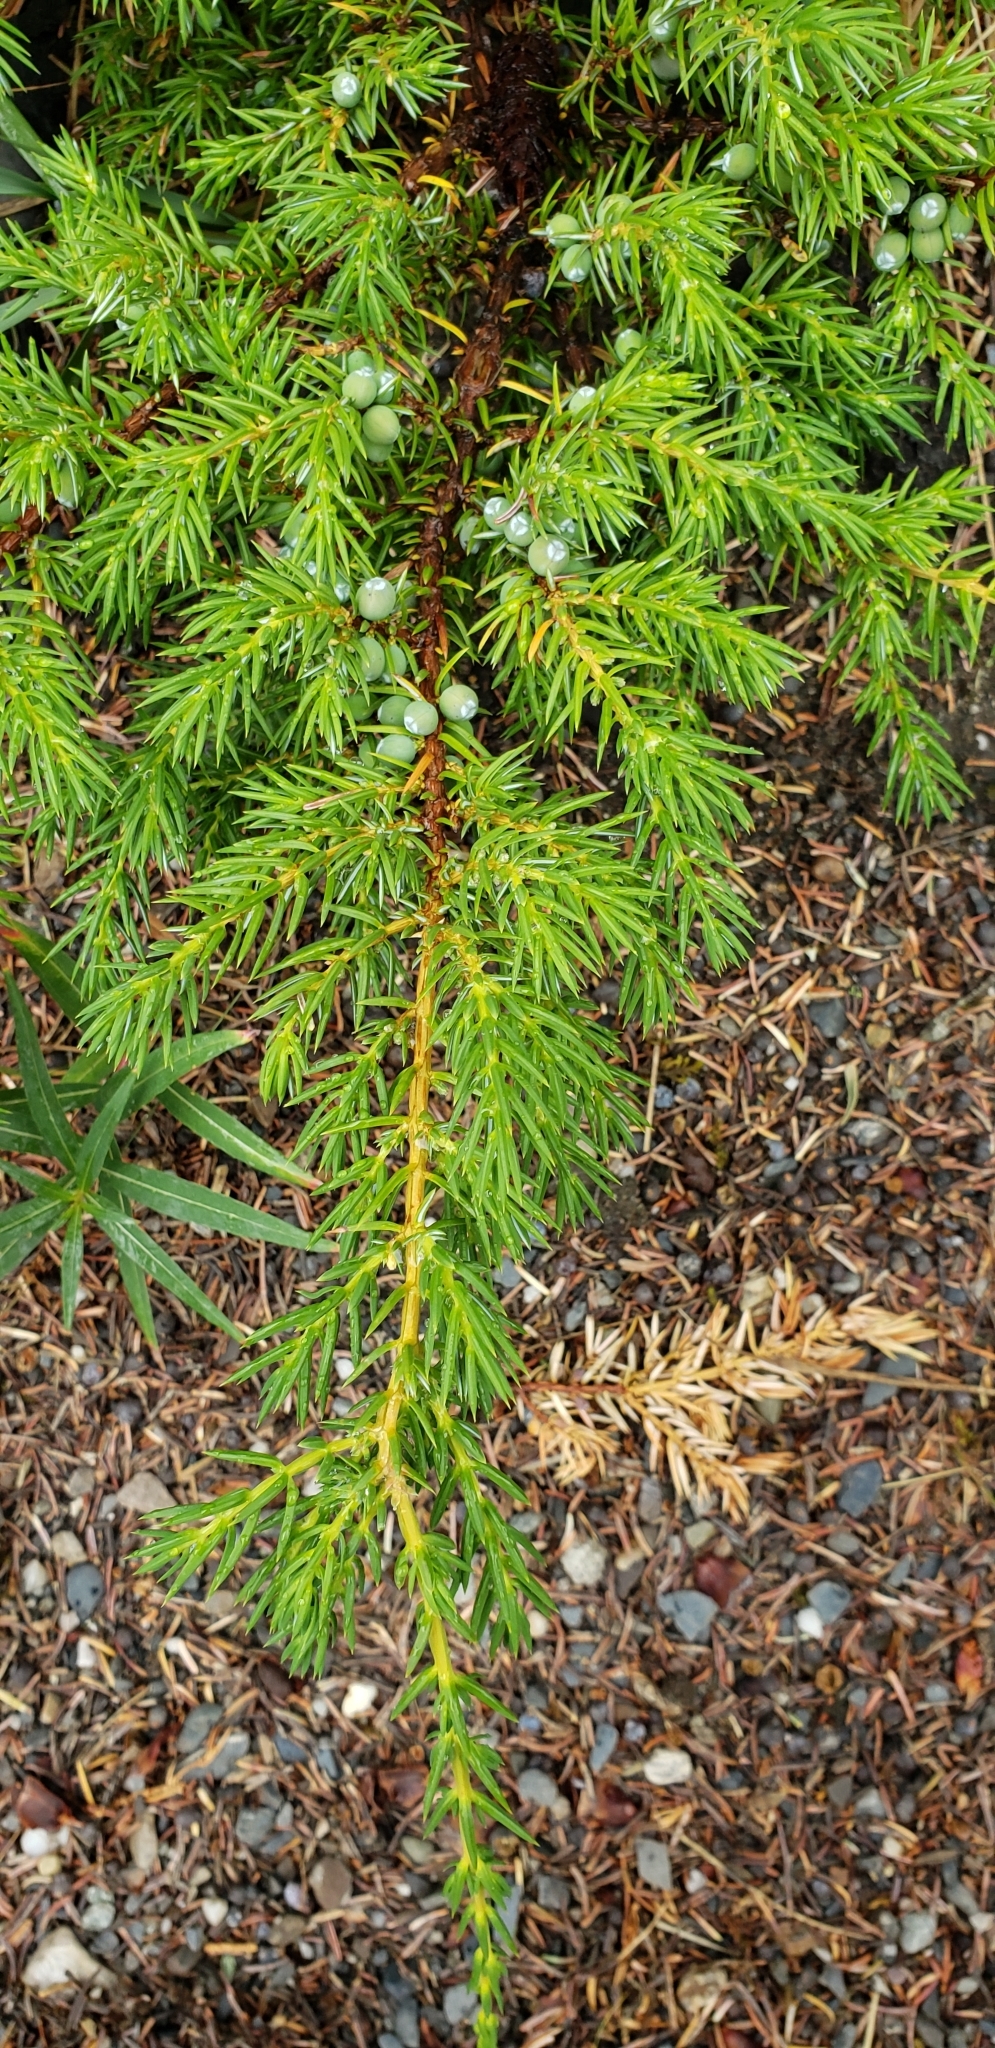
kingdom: Plantae
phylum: Tracheophyta
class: Pinopsida
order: Pinales
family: Cupressaceae
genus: Juniperus
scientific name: Juniperus communis
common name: Common juniper
